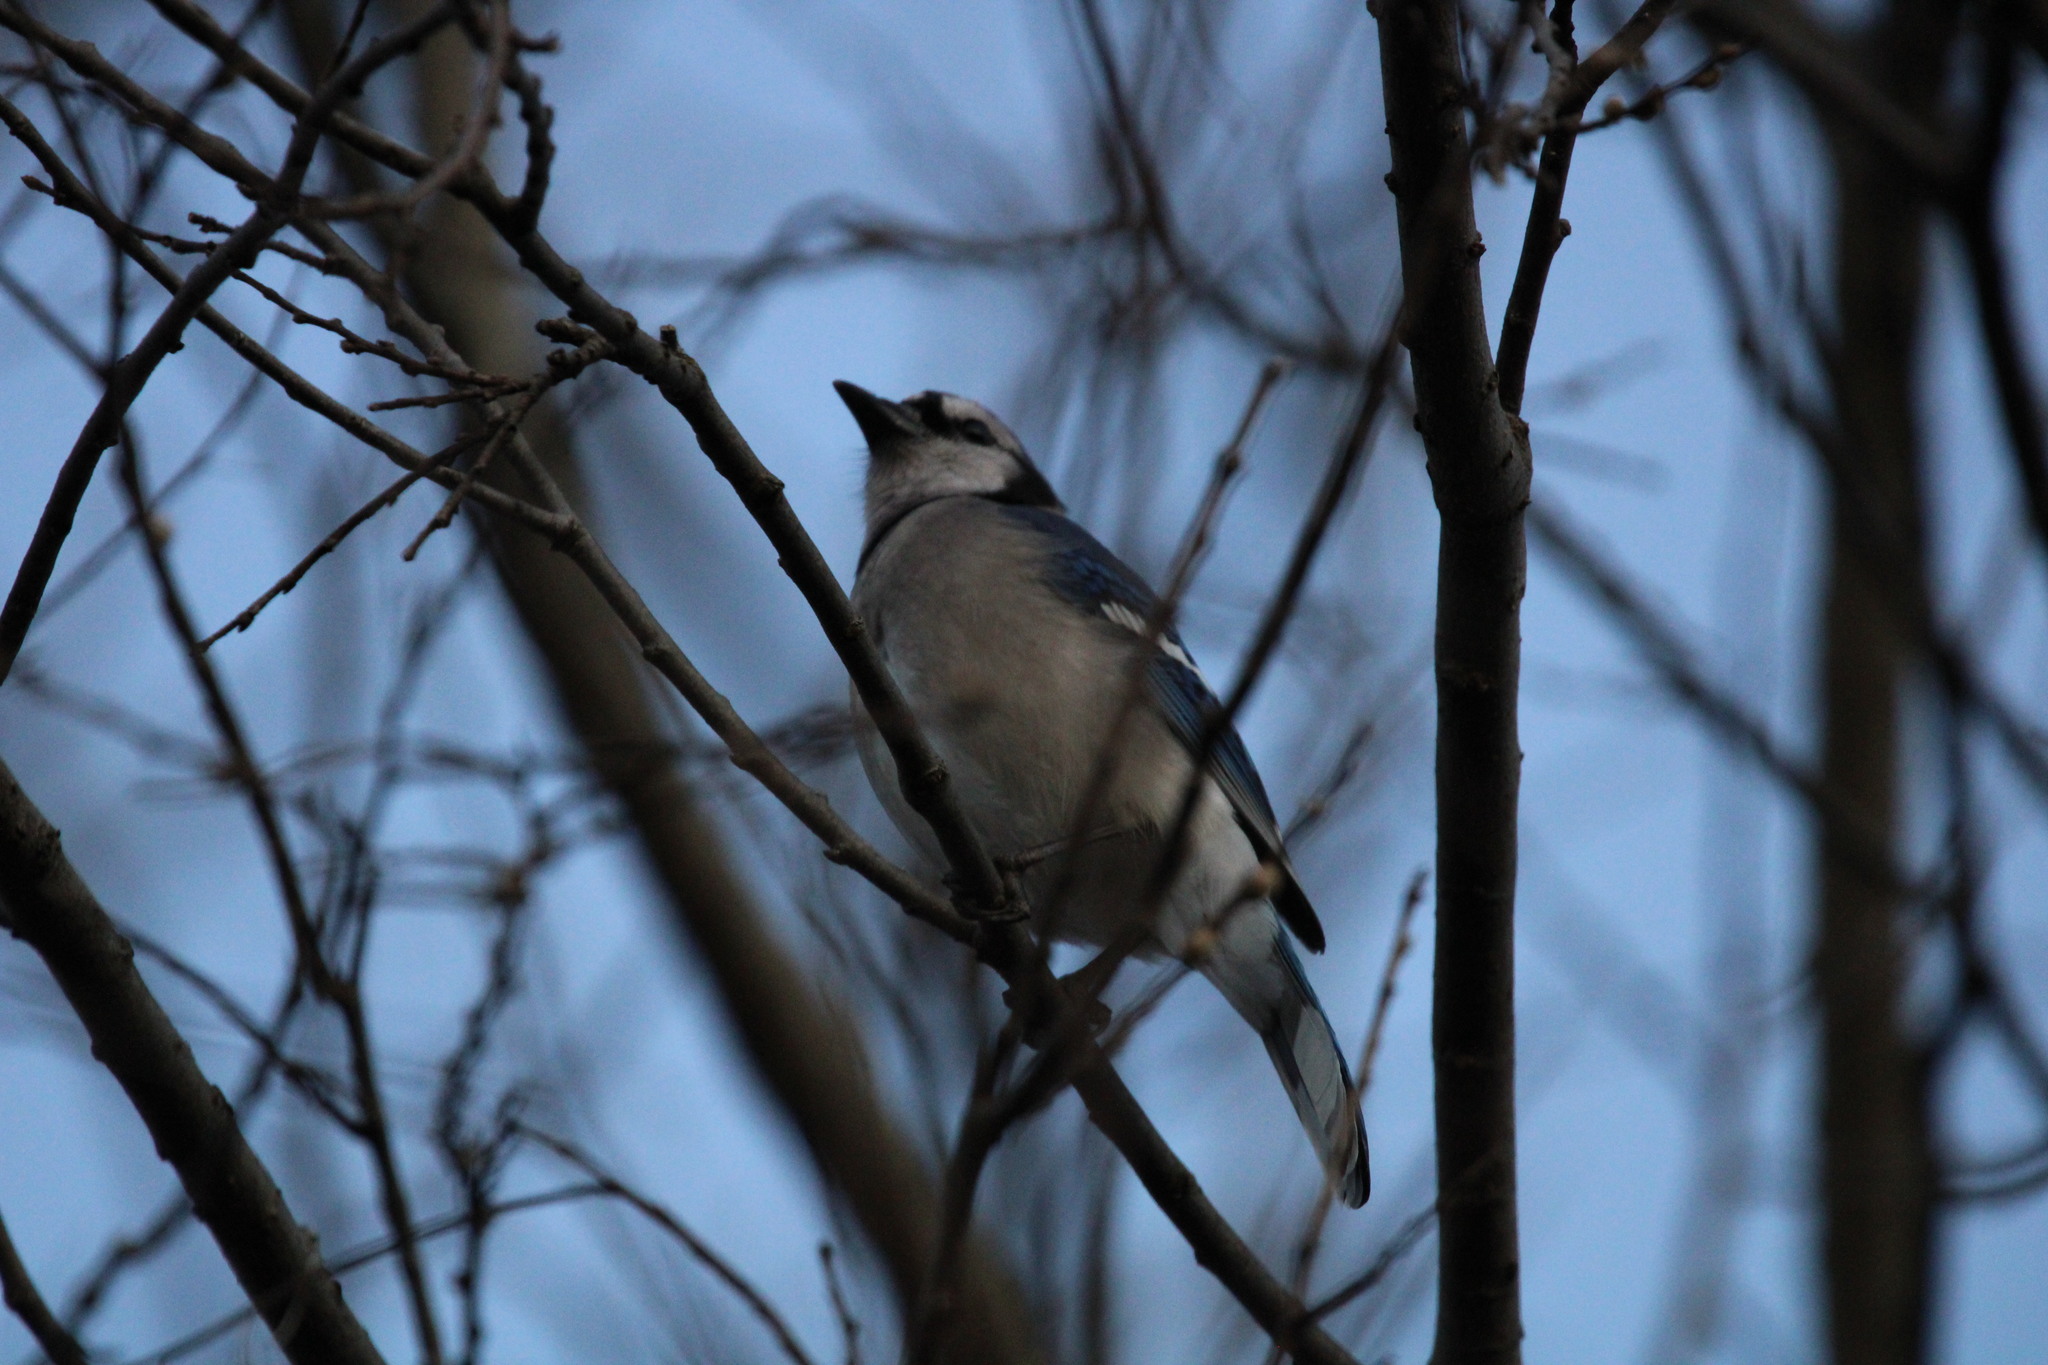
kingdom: Animalia
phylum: Chordata
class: Aves
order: Passeriformes
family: Corvidae
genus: Cyanocitta
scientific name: Cyanocitta cristata
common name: Blue jay
